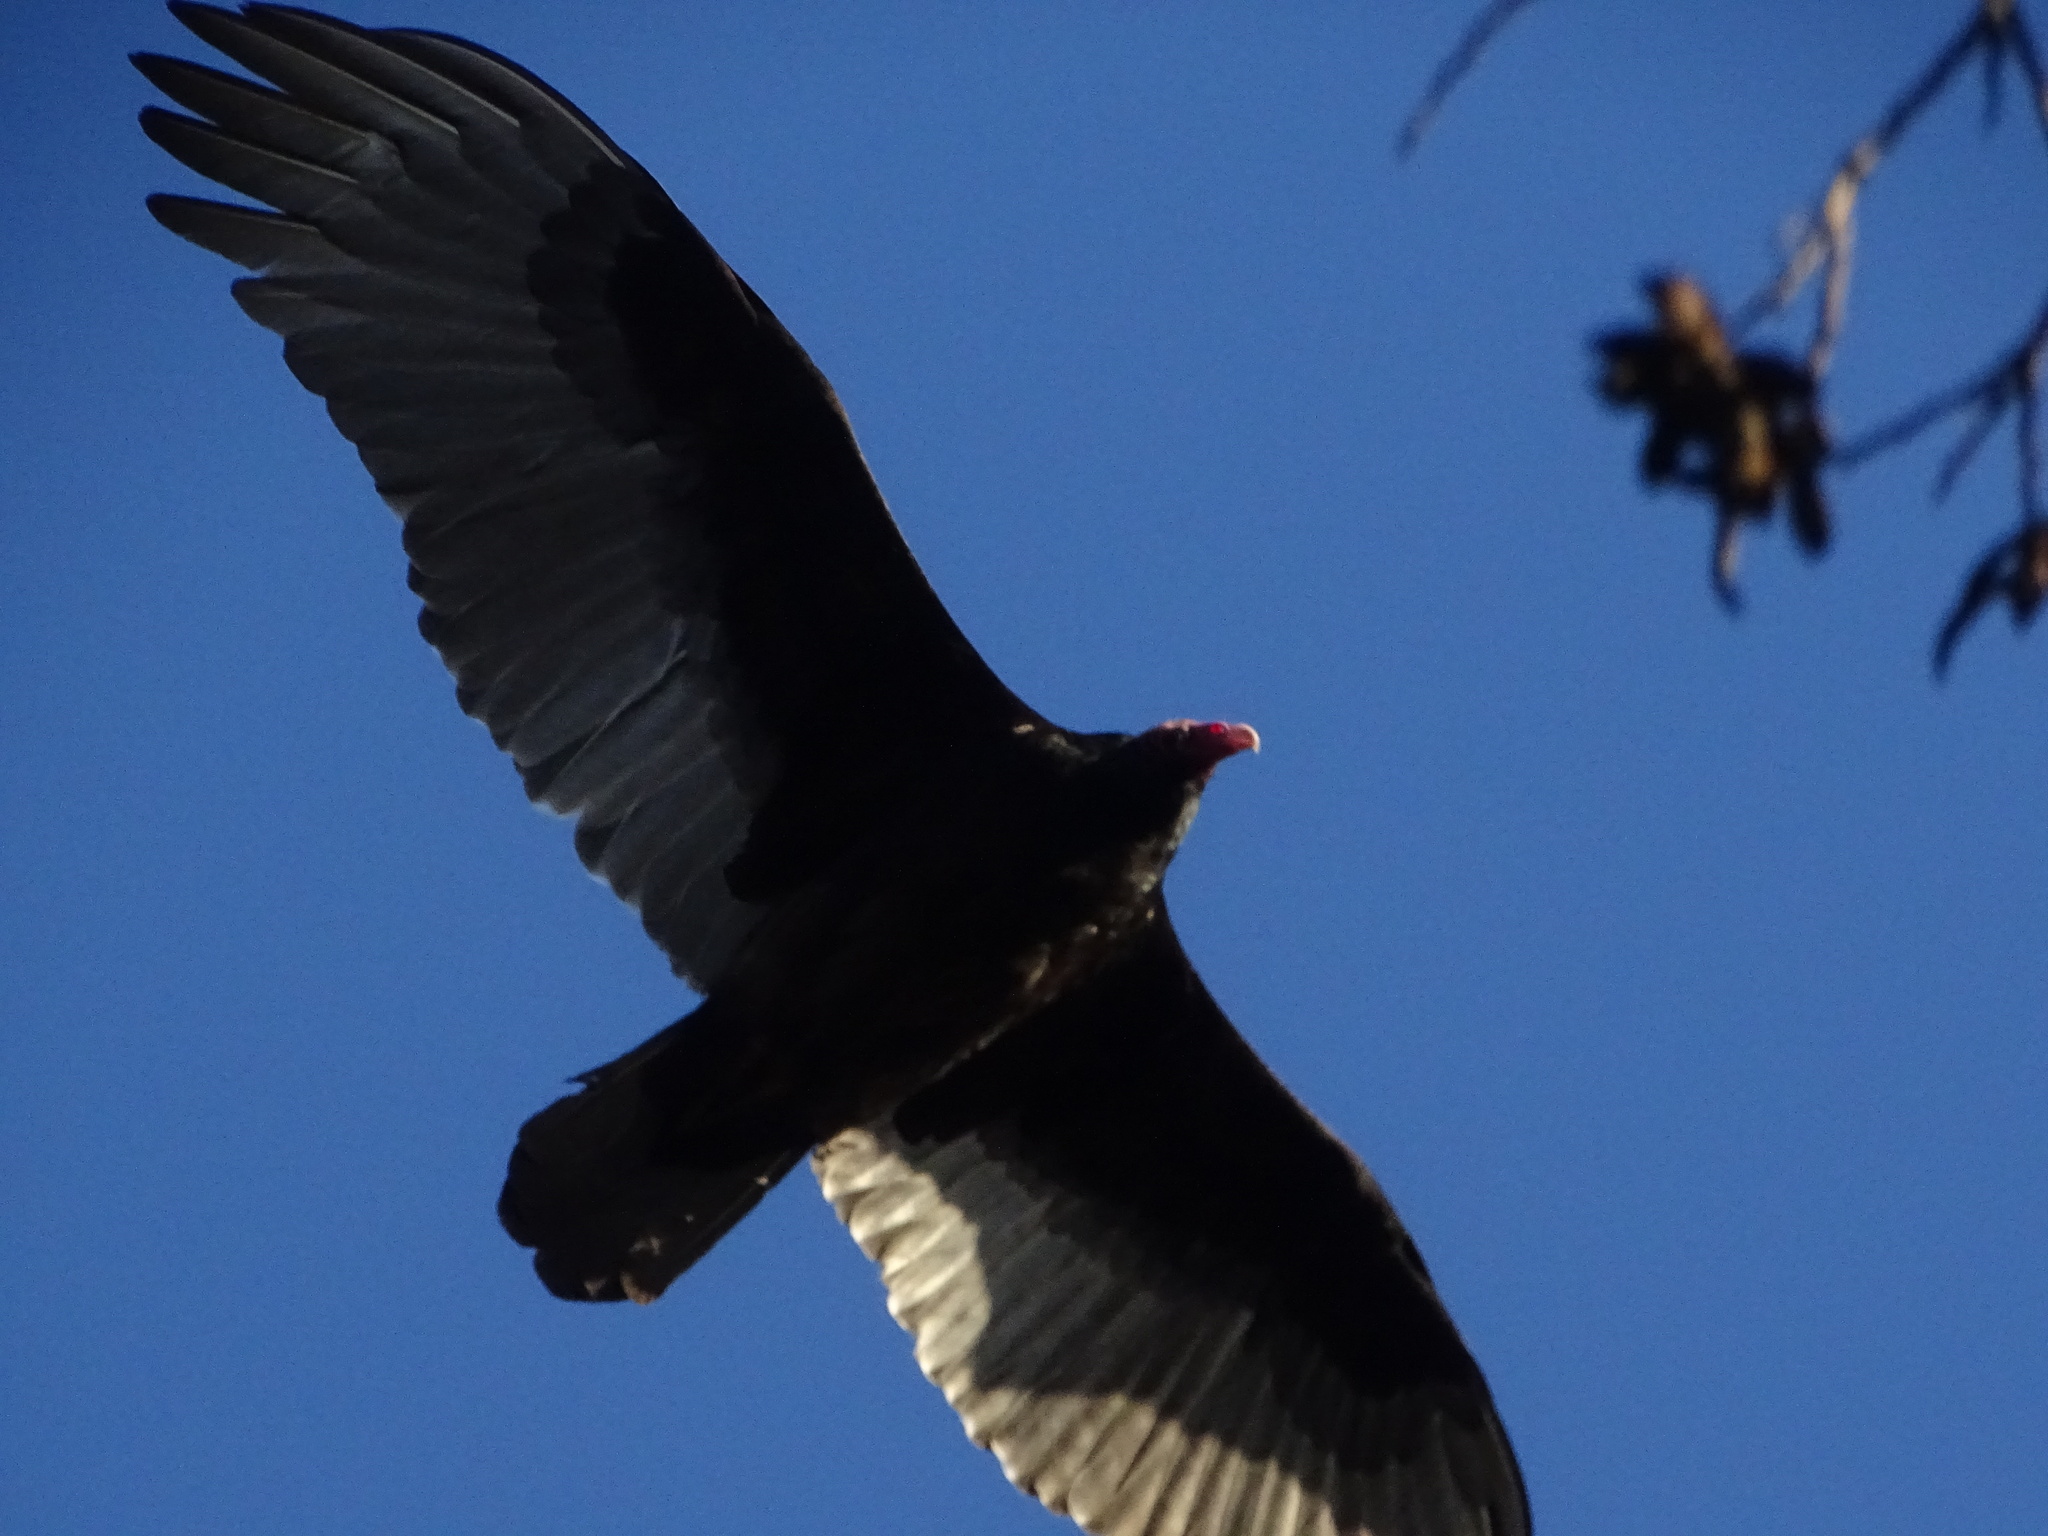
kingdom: Animalia
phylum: Chordata
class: Aves
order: Accipitriformes
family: Cathartidae
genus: Cathartes
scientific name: Cathartes aura
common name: Turkey vulture
